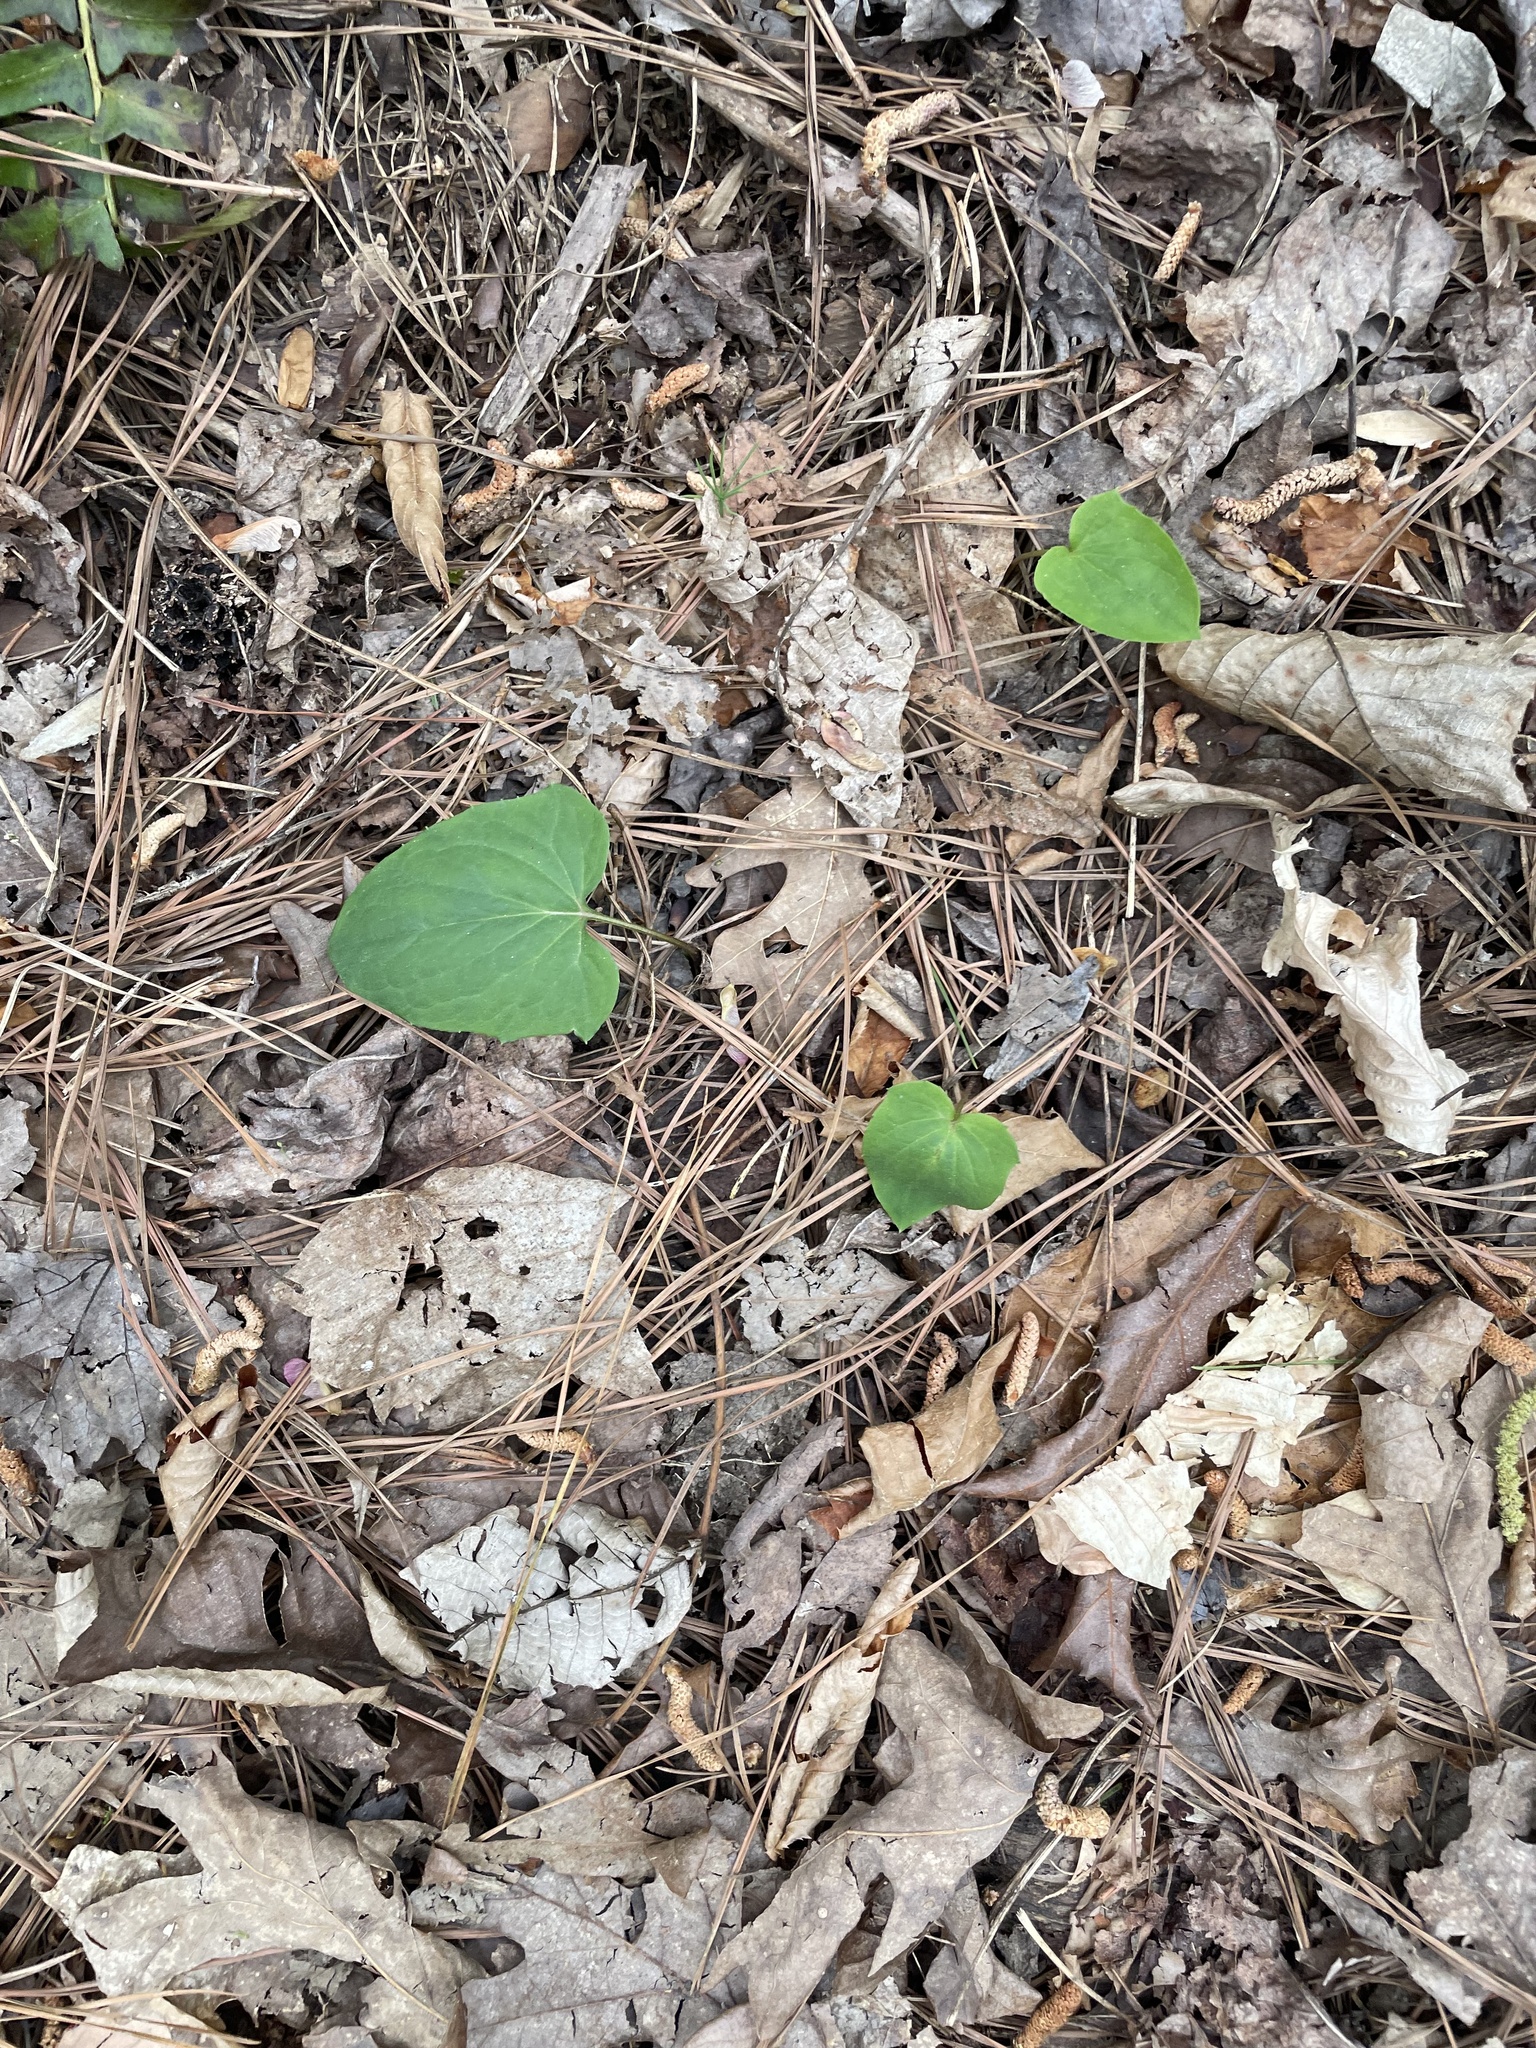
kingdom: Plantae
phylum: Tracheophyta
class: Magnoliopsida
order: Asterales
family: Asteraceae
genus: Arnoglossum
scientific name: Arnoglossum atriplicifolium
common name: Pale indian-plantain
